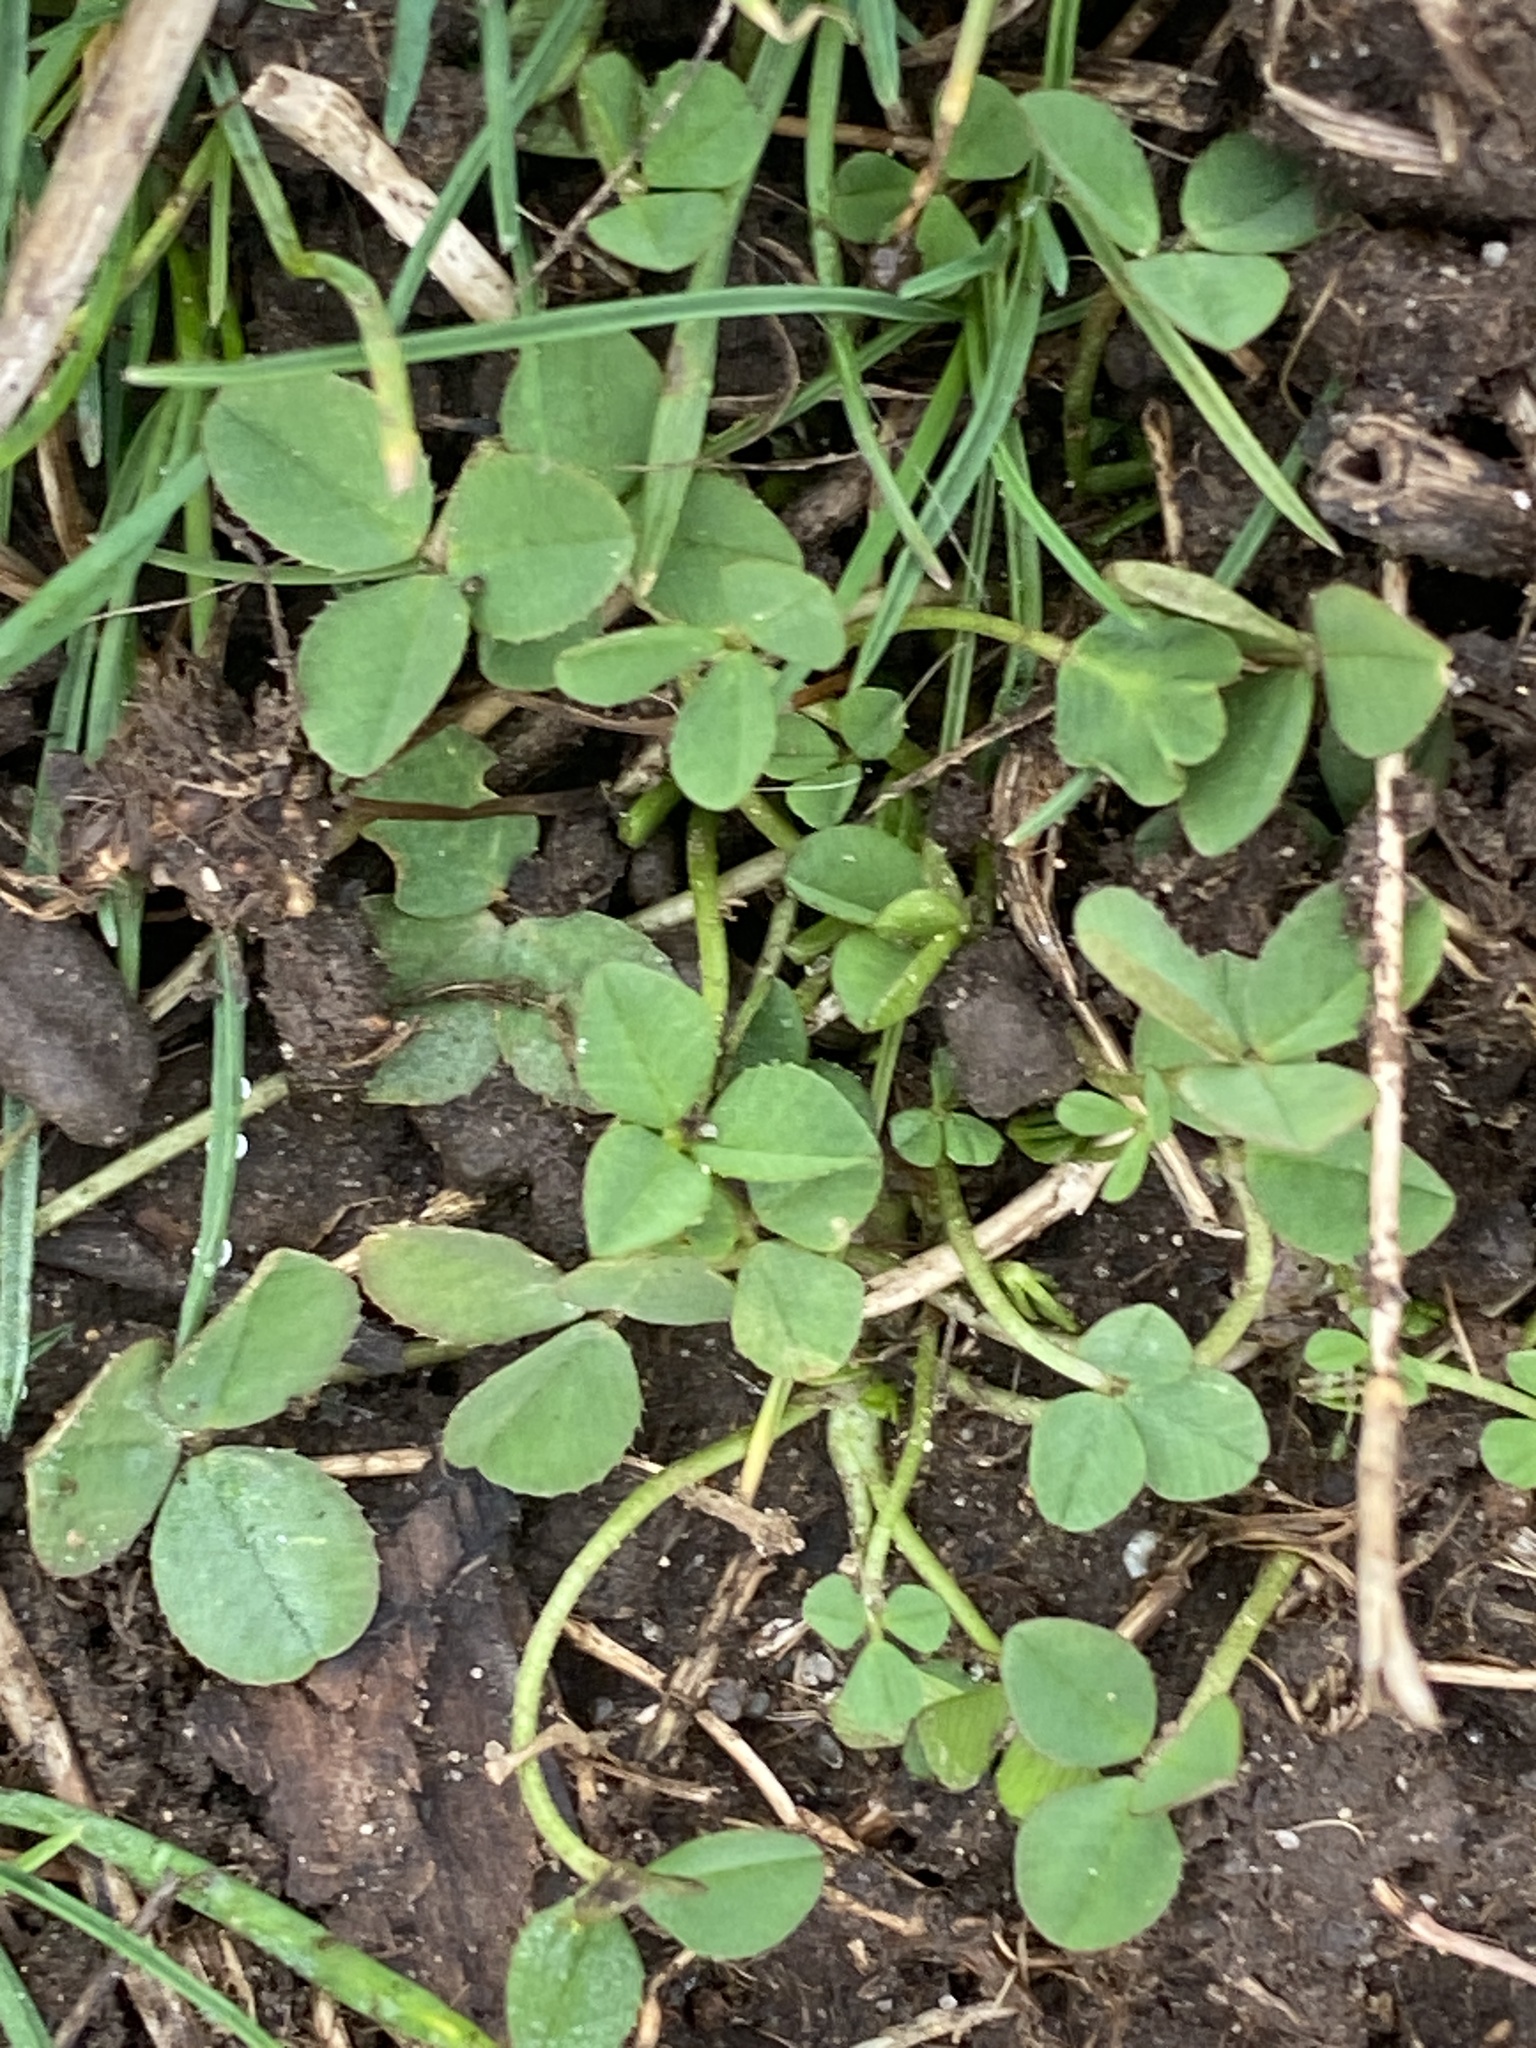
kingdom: Plantae
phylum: Tracheophyta
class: Magnoliopsida
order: Fabales
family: Fabaceae
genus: Trifolium
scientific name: Trifolium repens
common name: White clover
